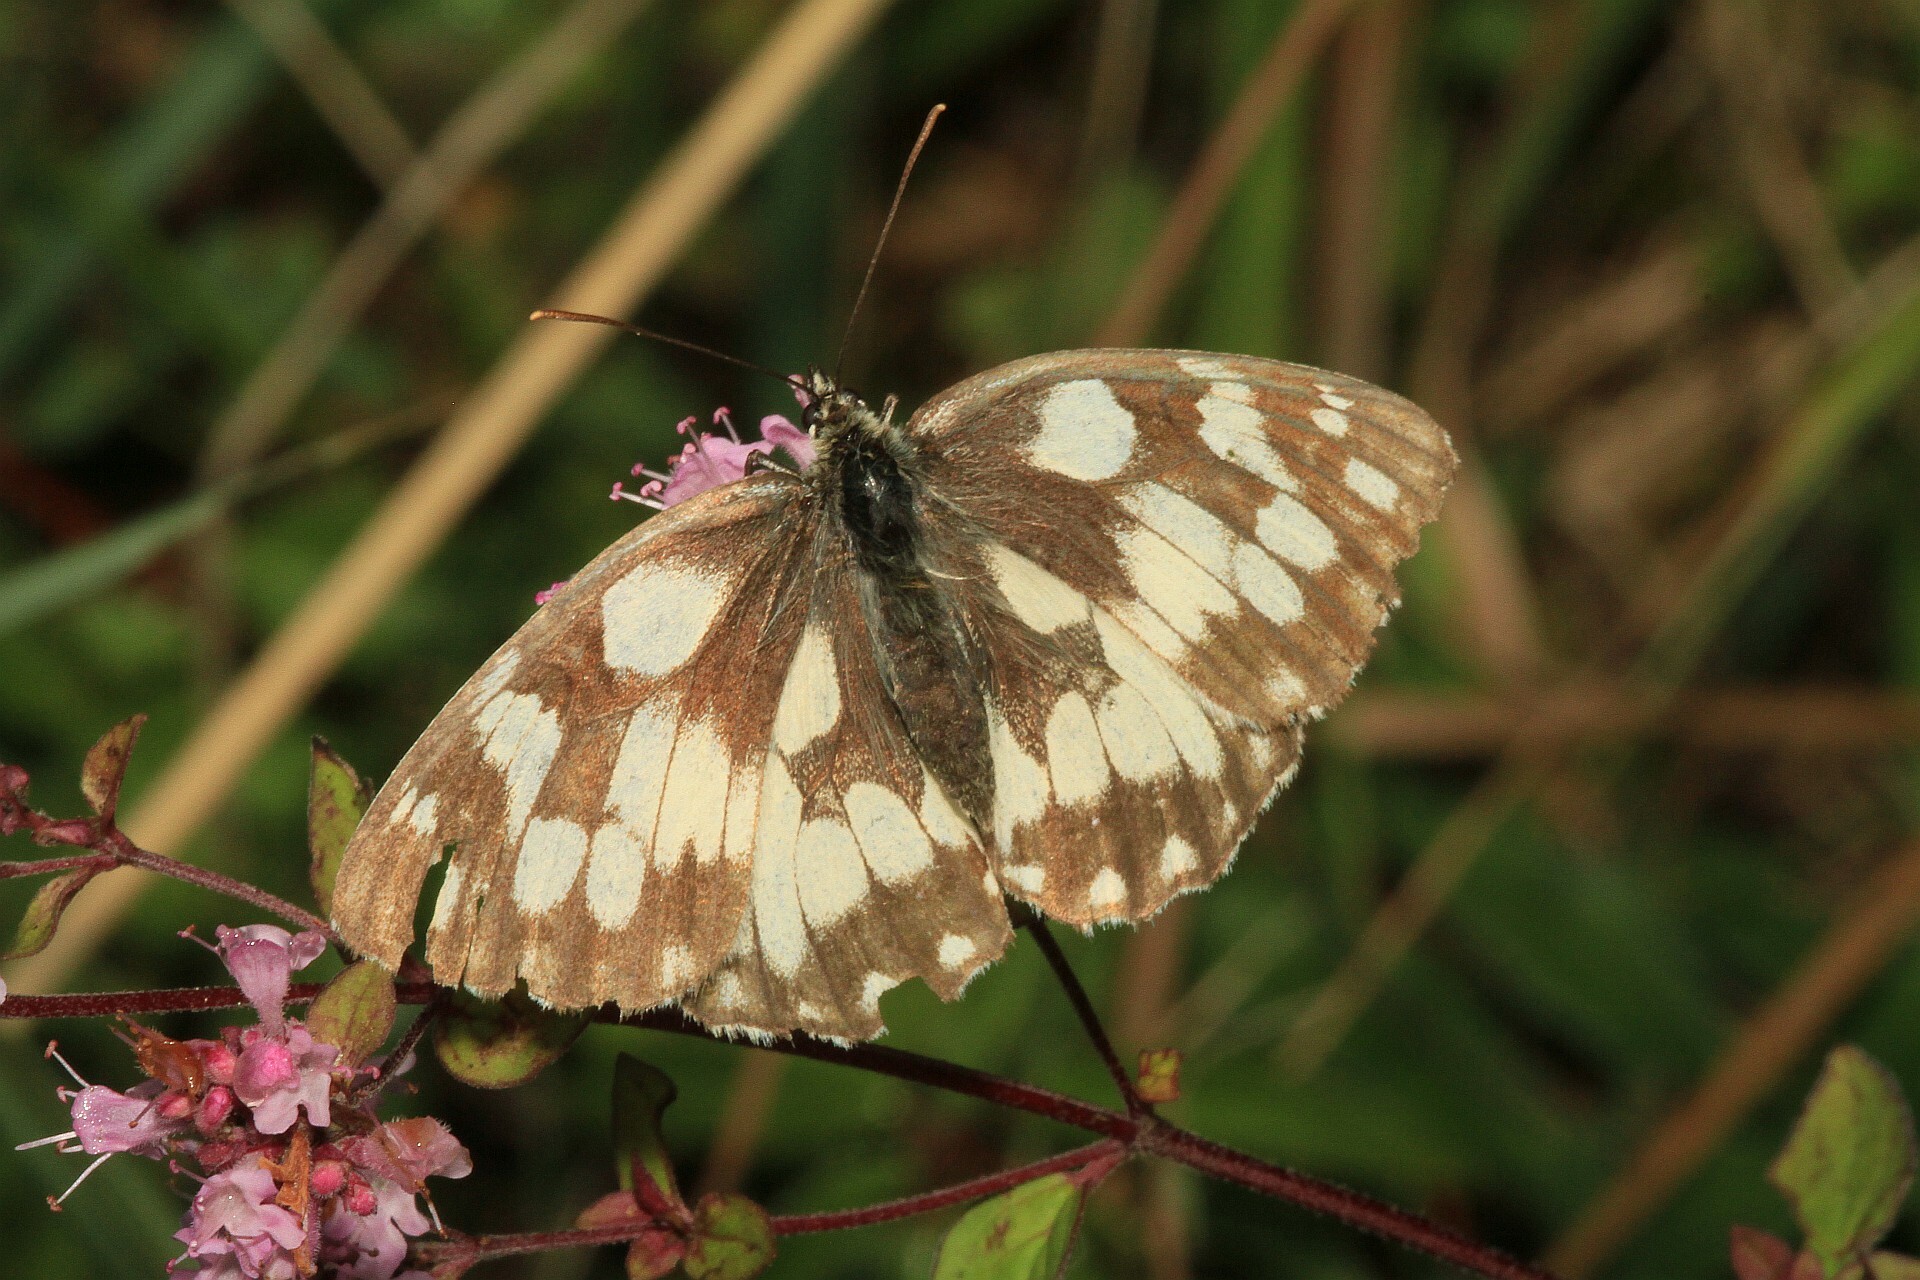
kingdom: Animalia
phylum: Arthropoda
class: Insecta
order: Lepidoptera
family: Nymphalidae
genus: Melanargia
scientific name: Melanargia galathea
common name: Marbled white
